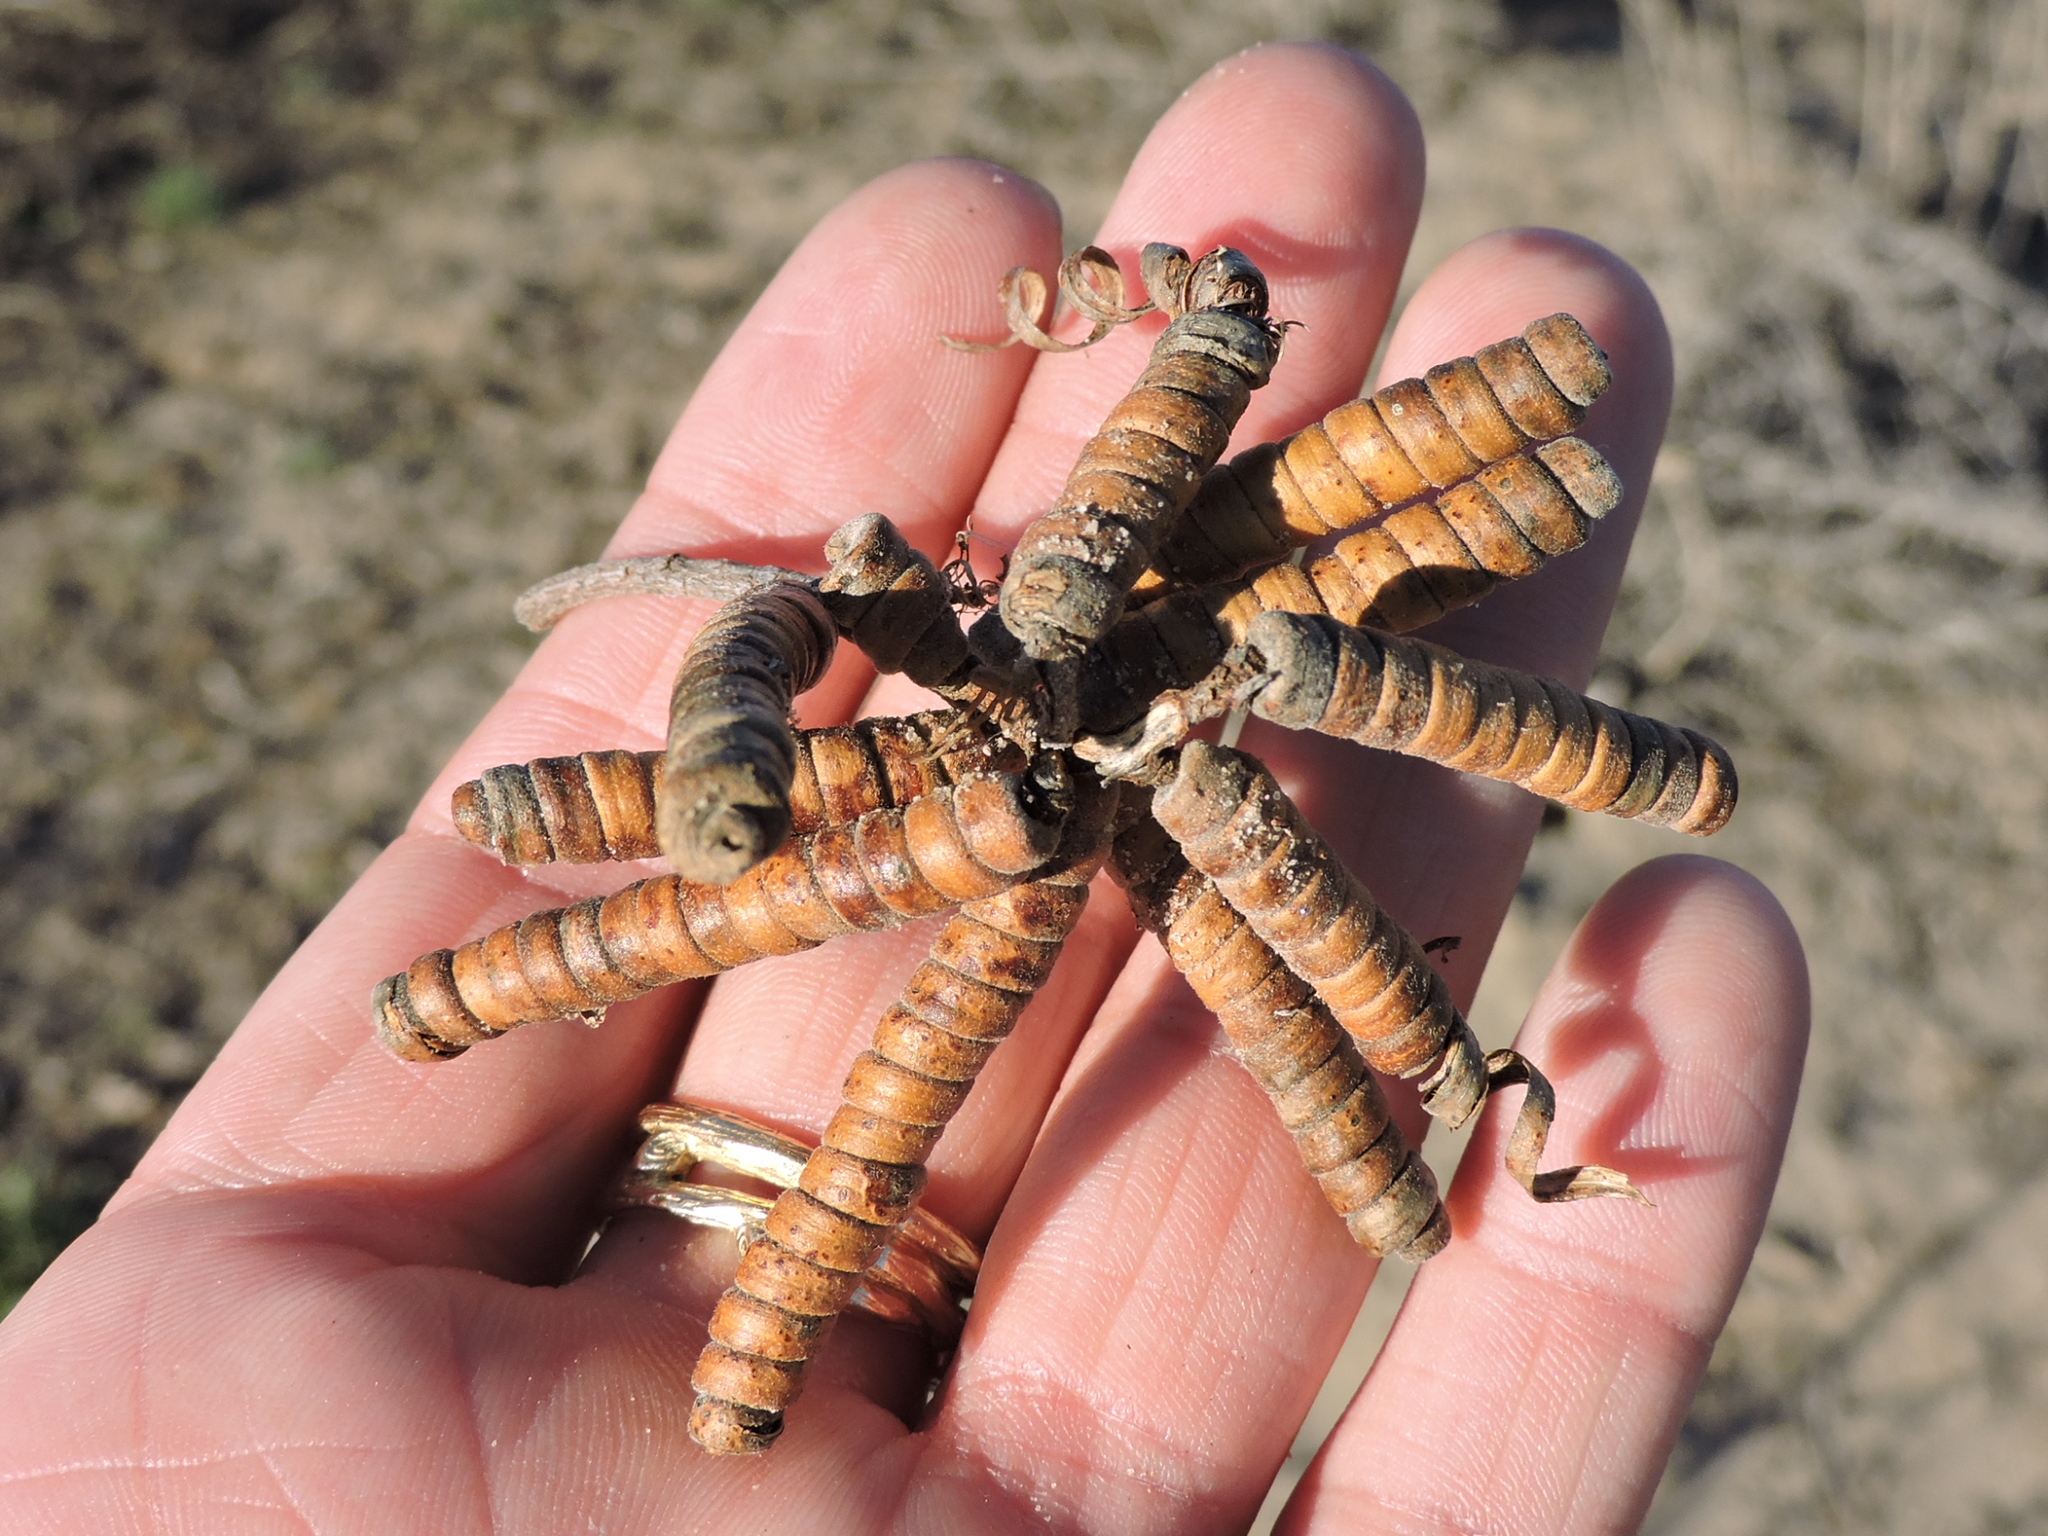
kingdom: Plantae
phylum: Tracheophyta
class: Magnoliopsida
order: Fabales
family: Fabaceae
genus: Prosopis
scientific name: Prosopis pubescens
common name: Screw-bean
